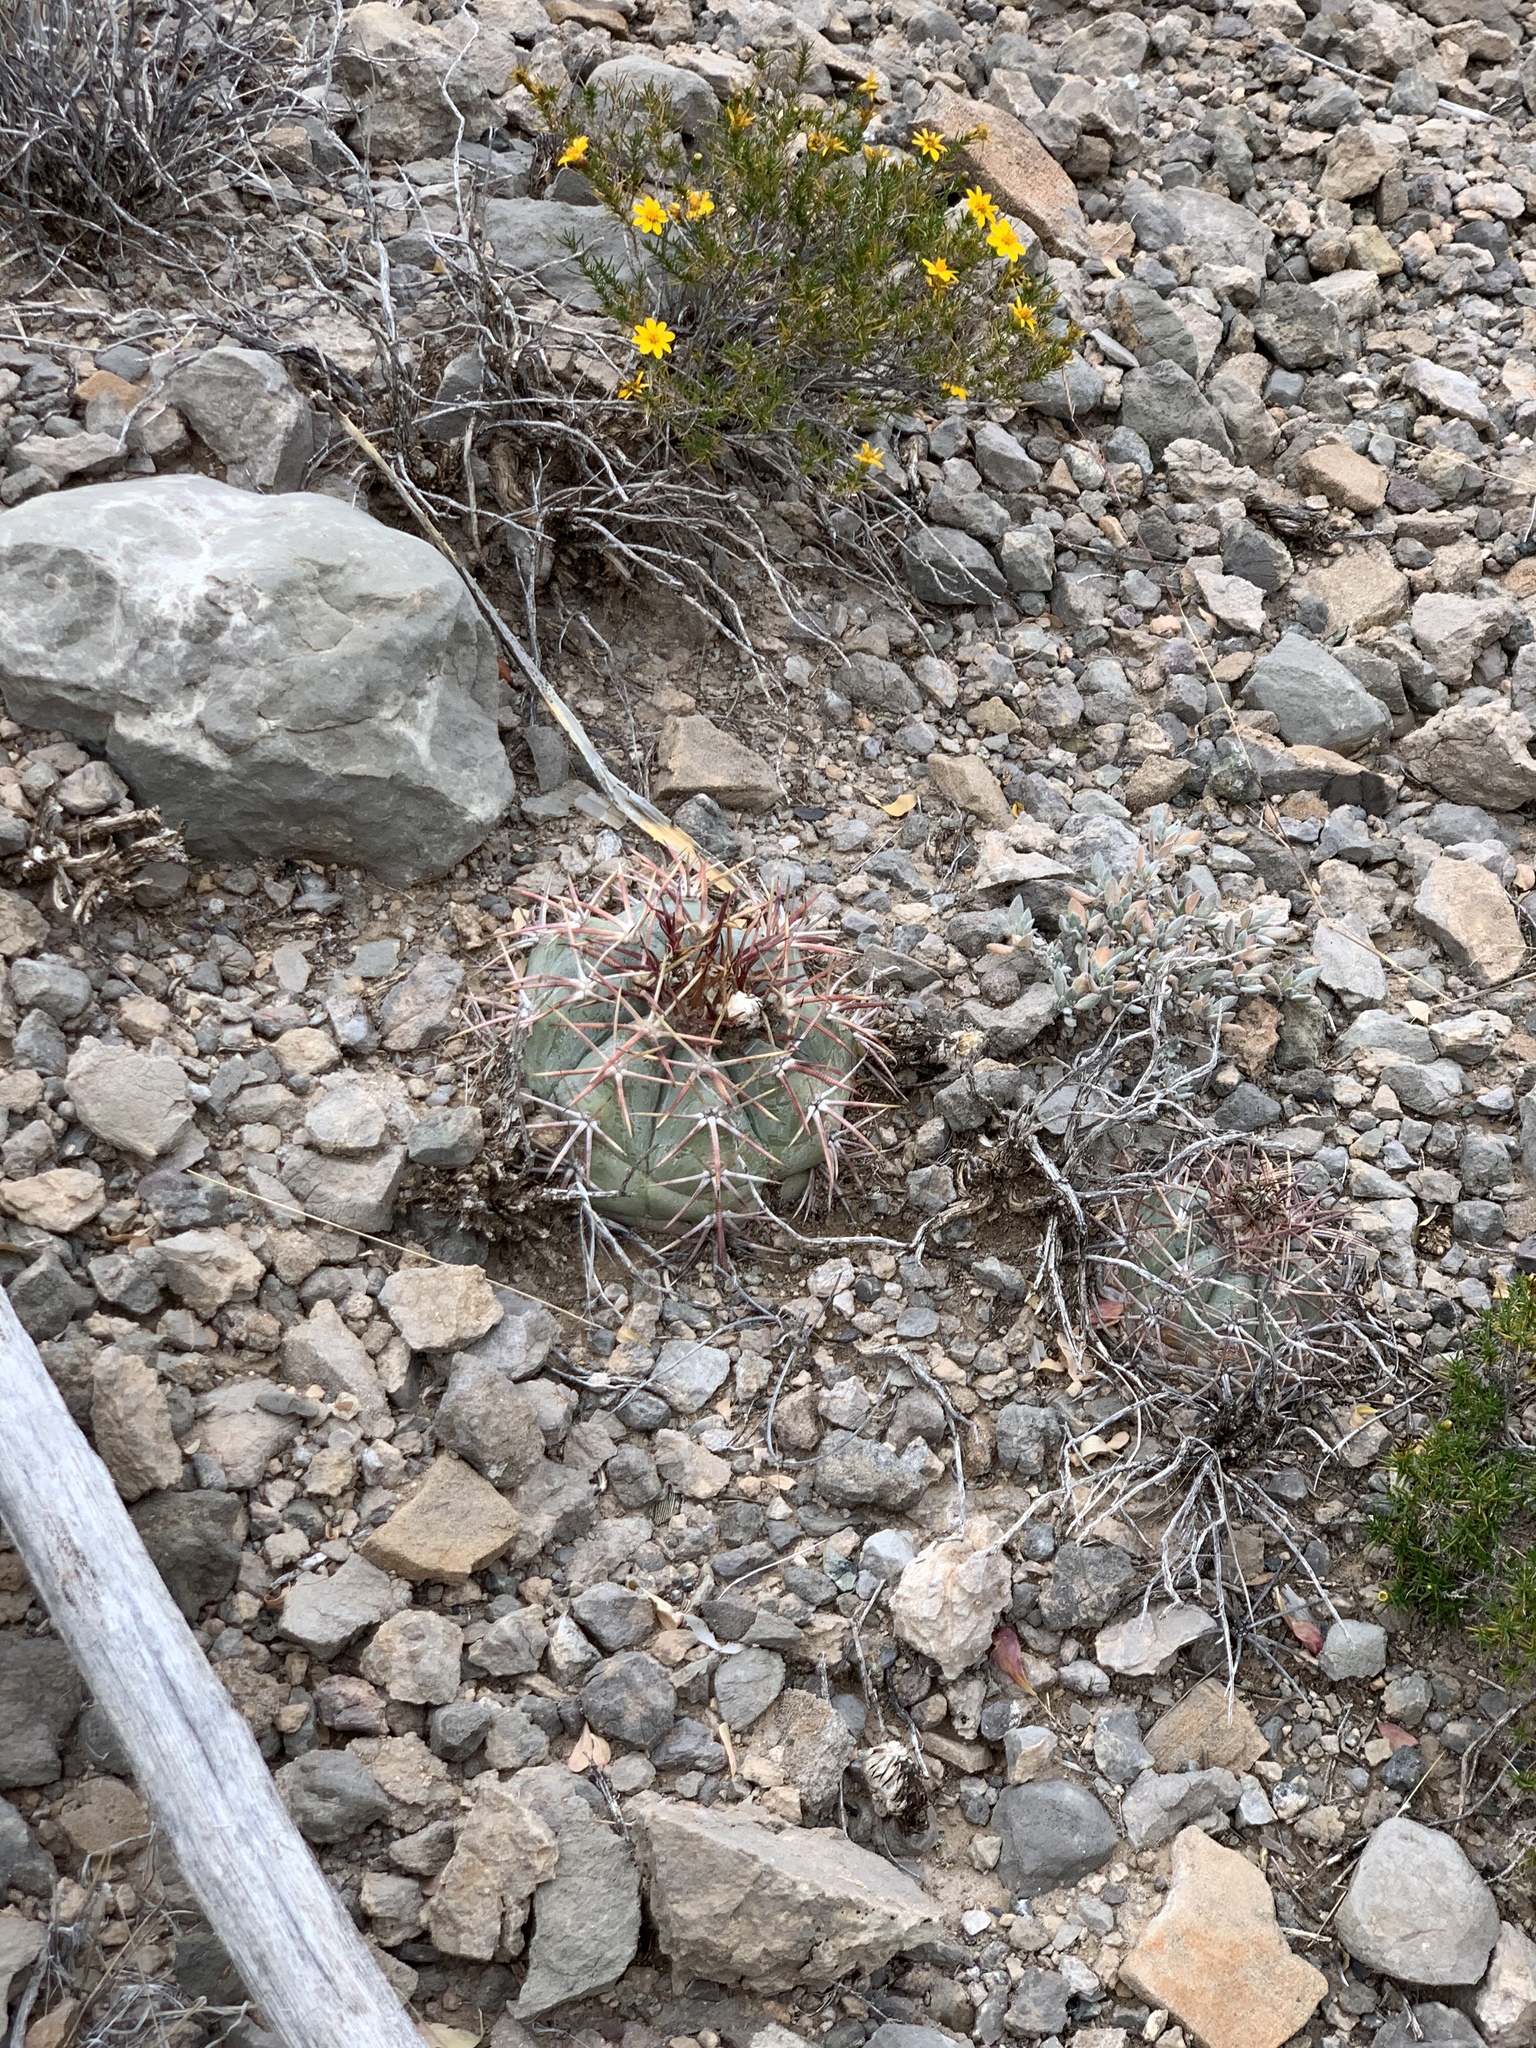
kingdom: Plantae
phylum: Tracheophyta
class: Magnoliopsida
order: Caryophyllales
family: Cactaceae
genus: Echinocactus
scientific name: Echinocactus horizonthalonius
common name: Devilshead
